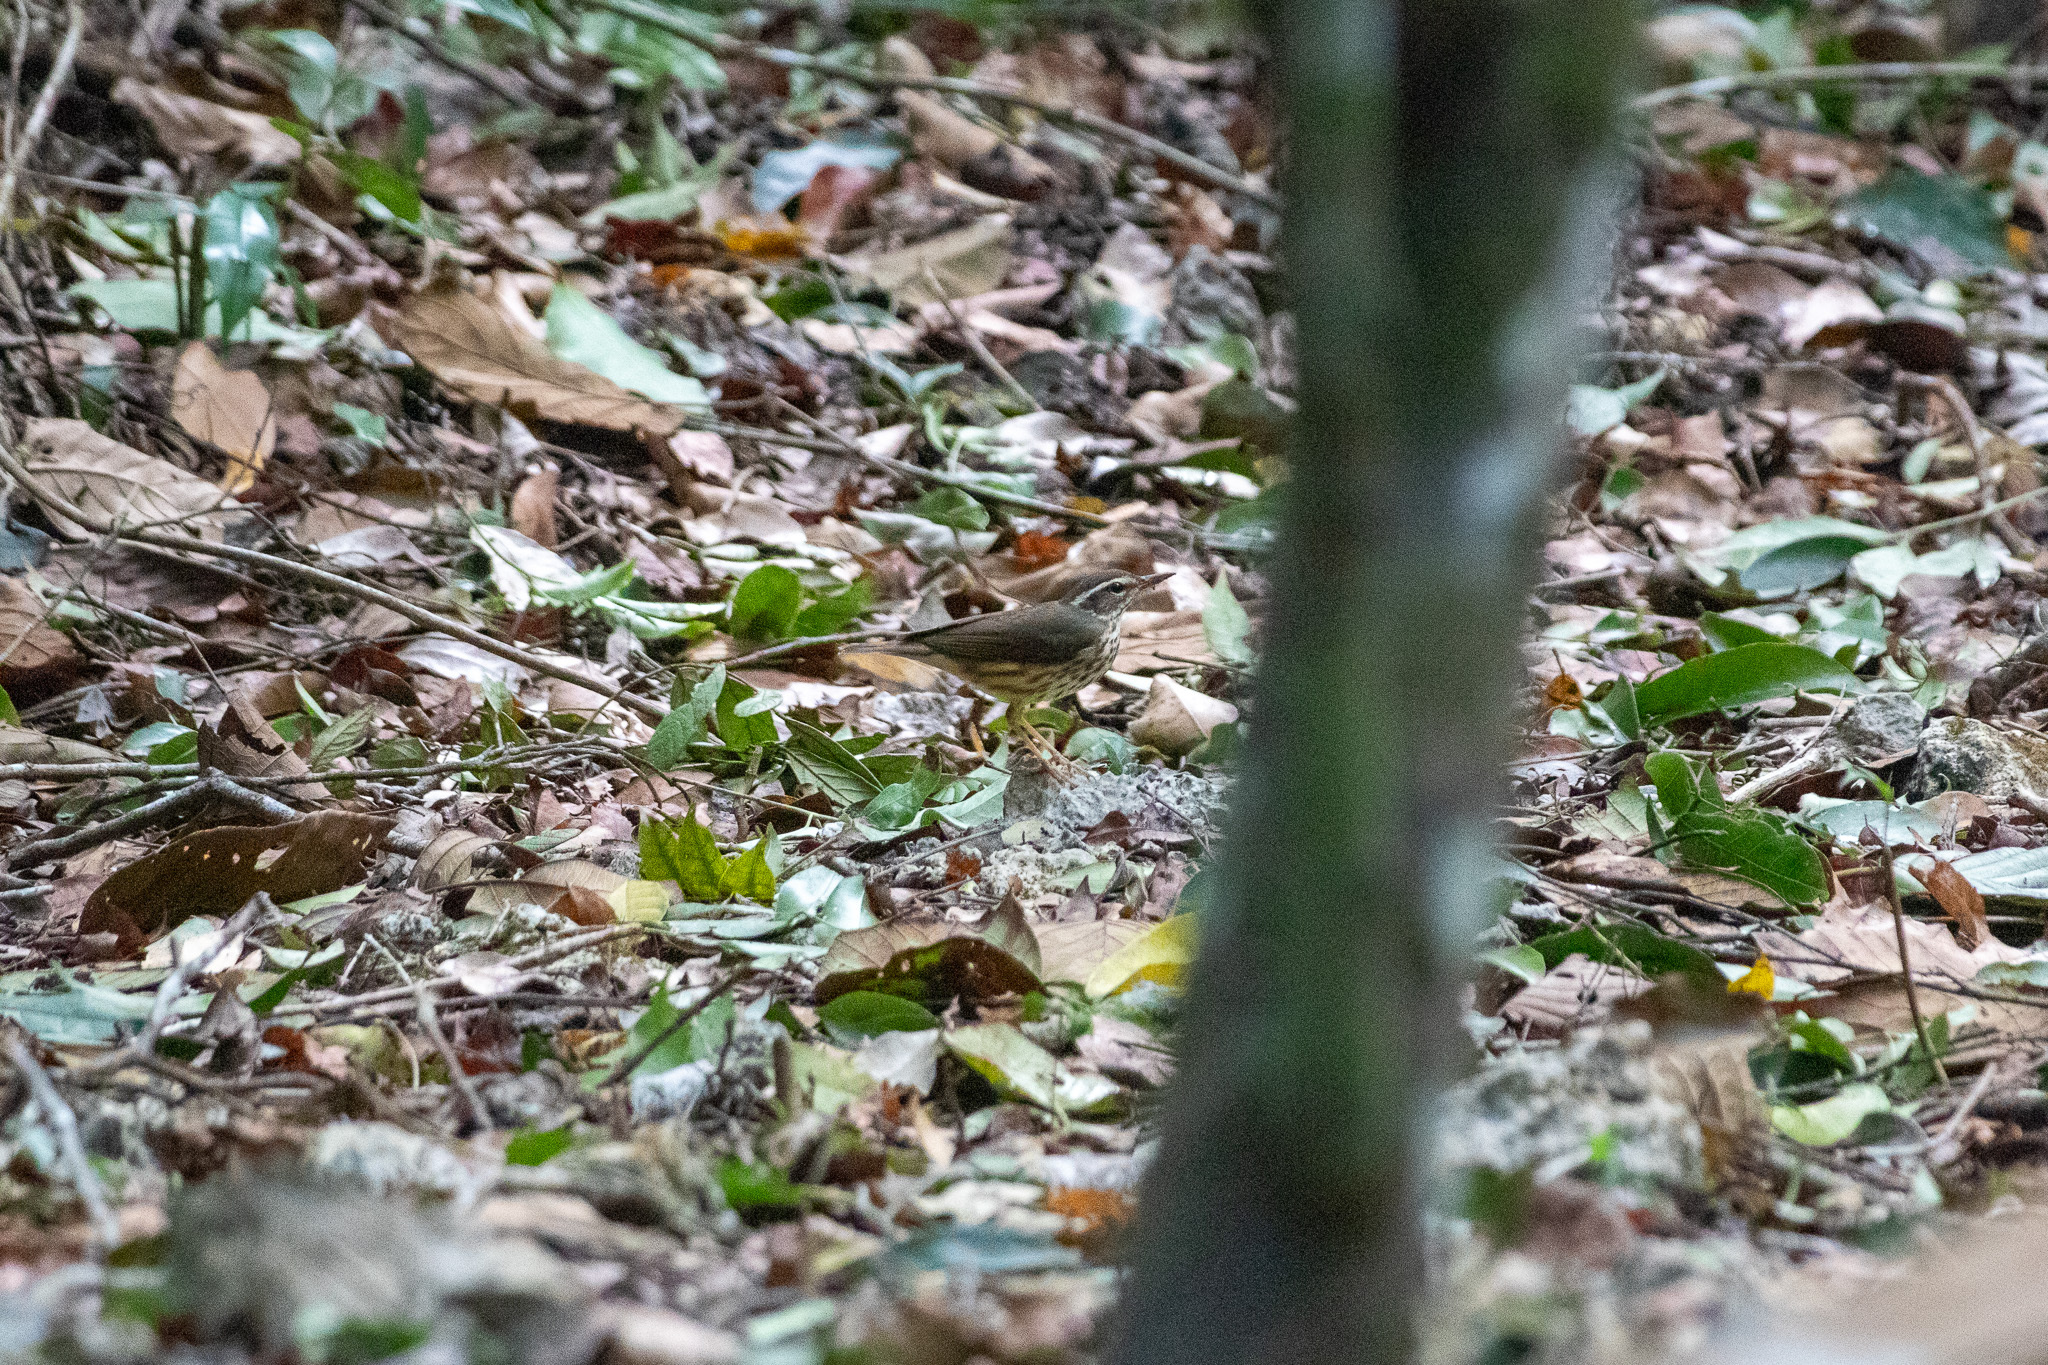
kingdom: Animalia
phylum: Chordata
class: Aves
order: Passeriformes
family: Parulidae
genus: Parkesia
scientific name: Parkesia motacilla
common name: Louisiana waterthrush
